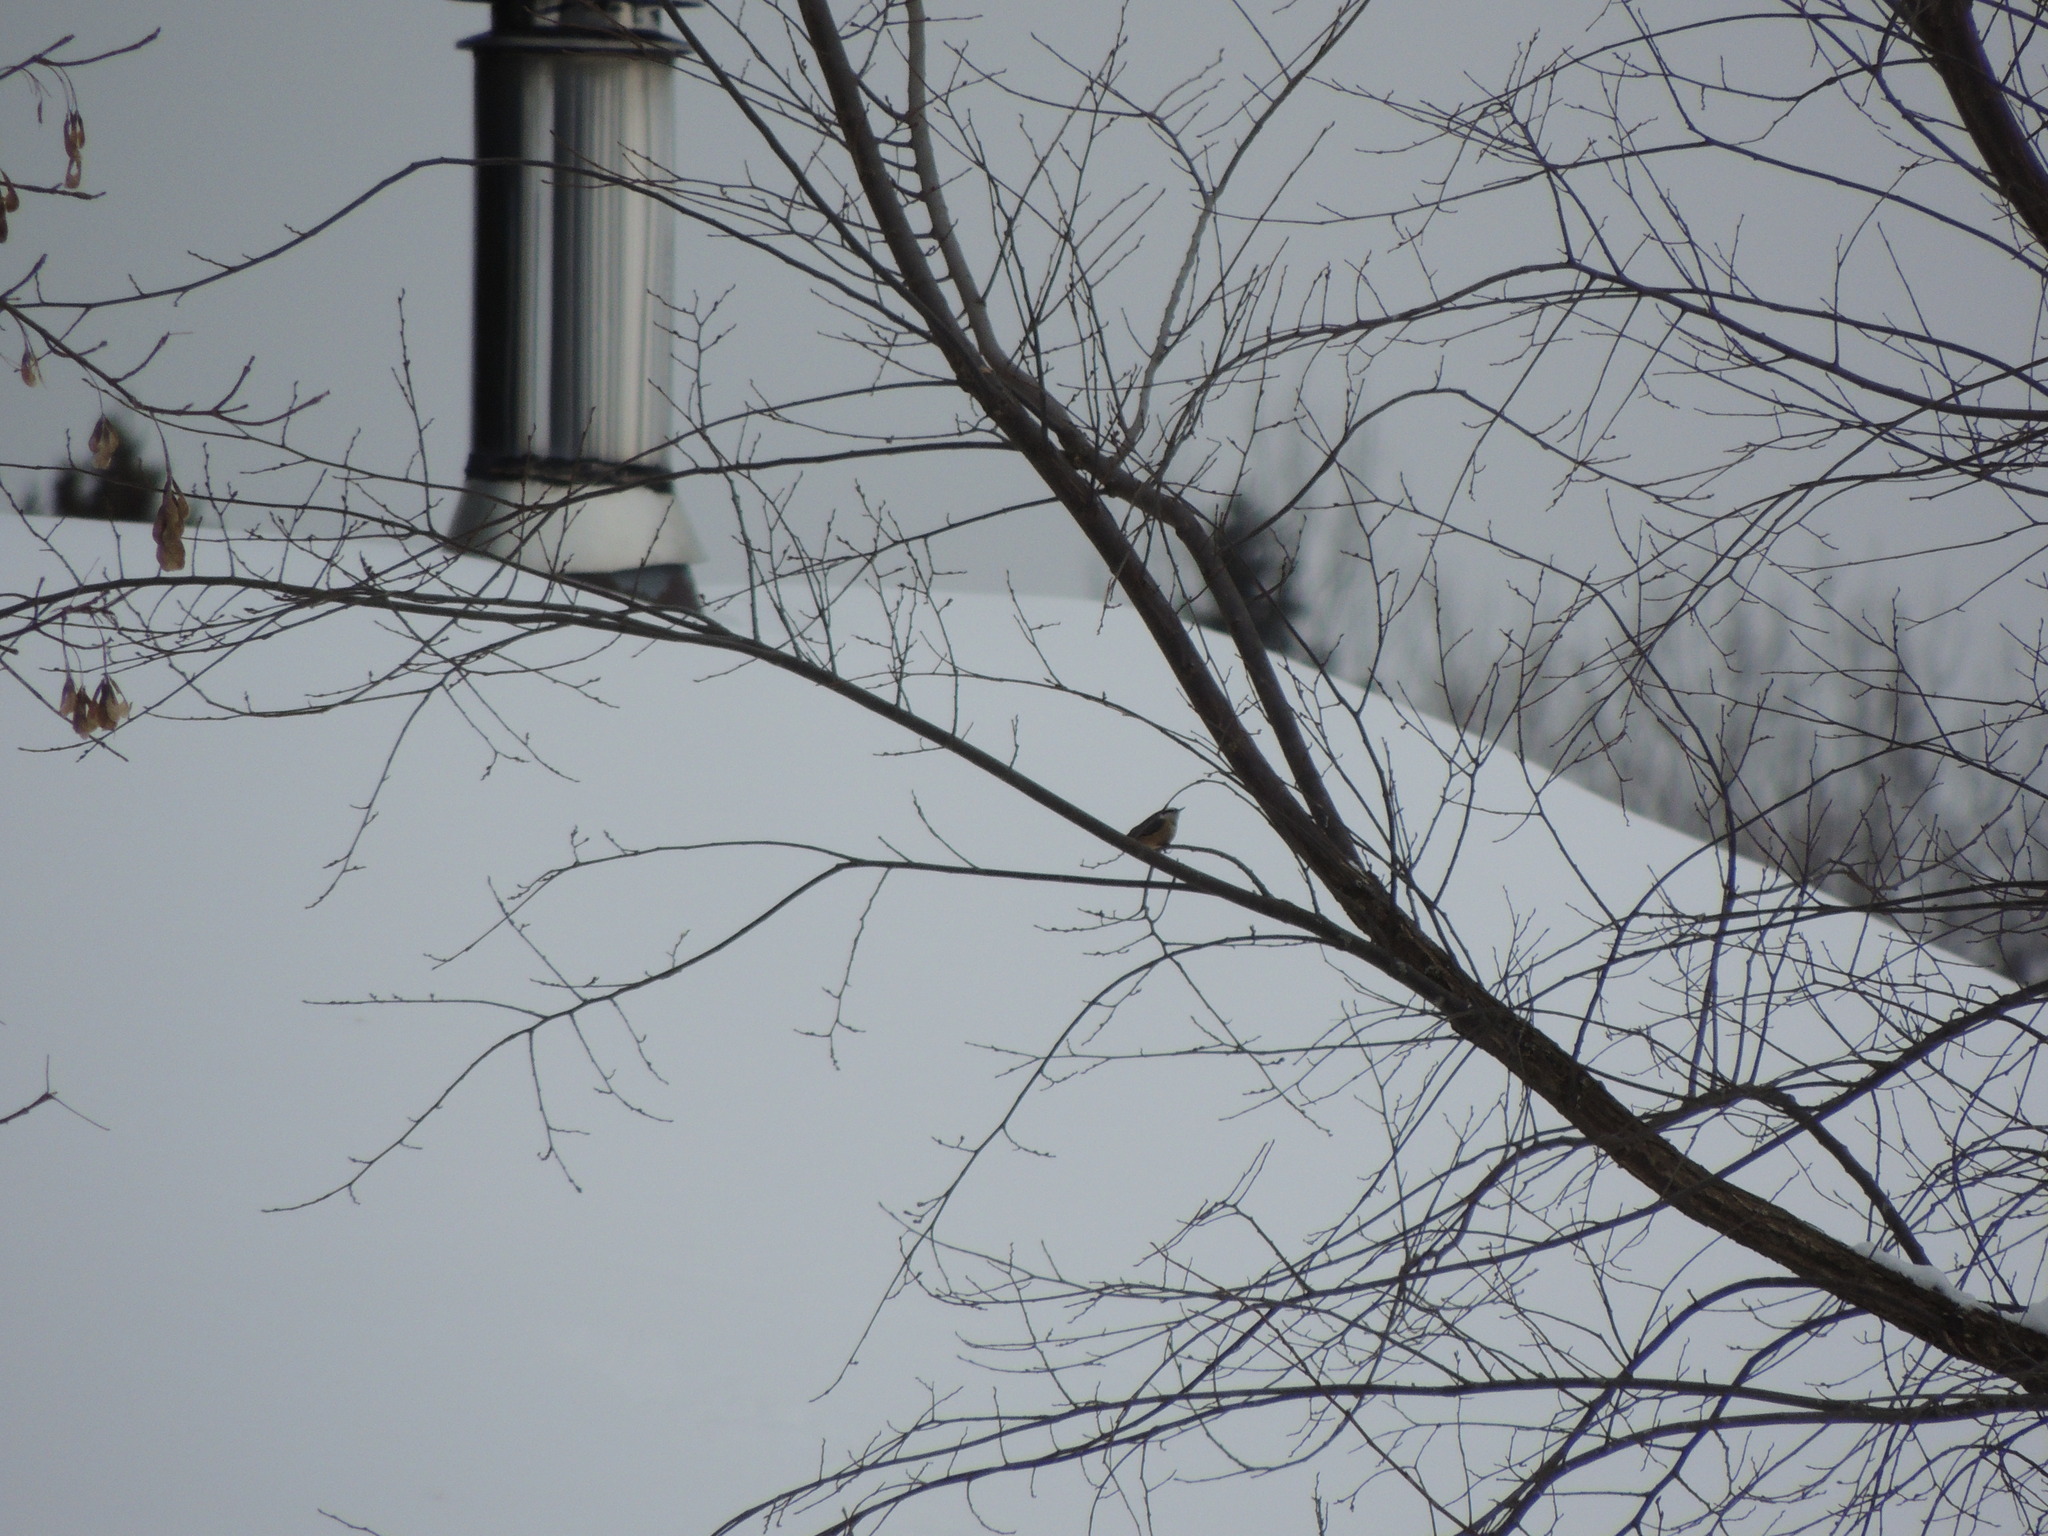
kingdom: Animalia
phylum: Chordata
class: Aves
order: Passeriformes
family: Sittidae
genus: Sitta
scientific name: Sitta canadensis
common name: Red-breasted nuthatch
